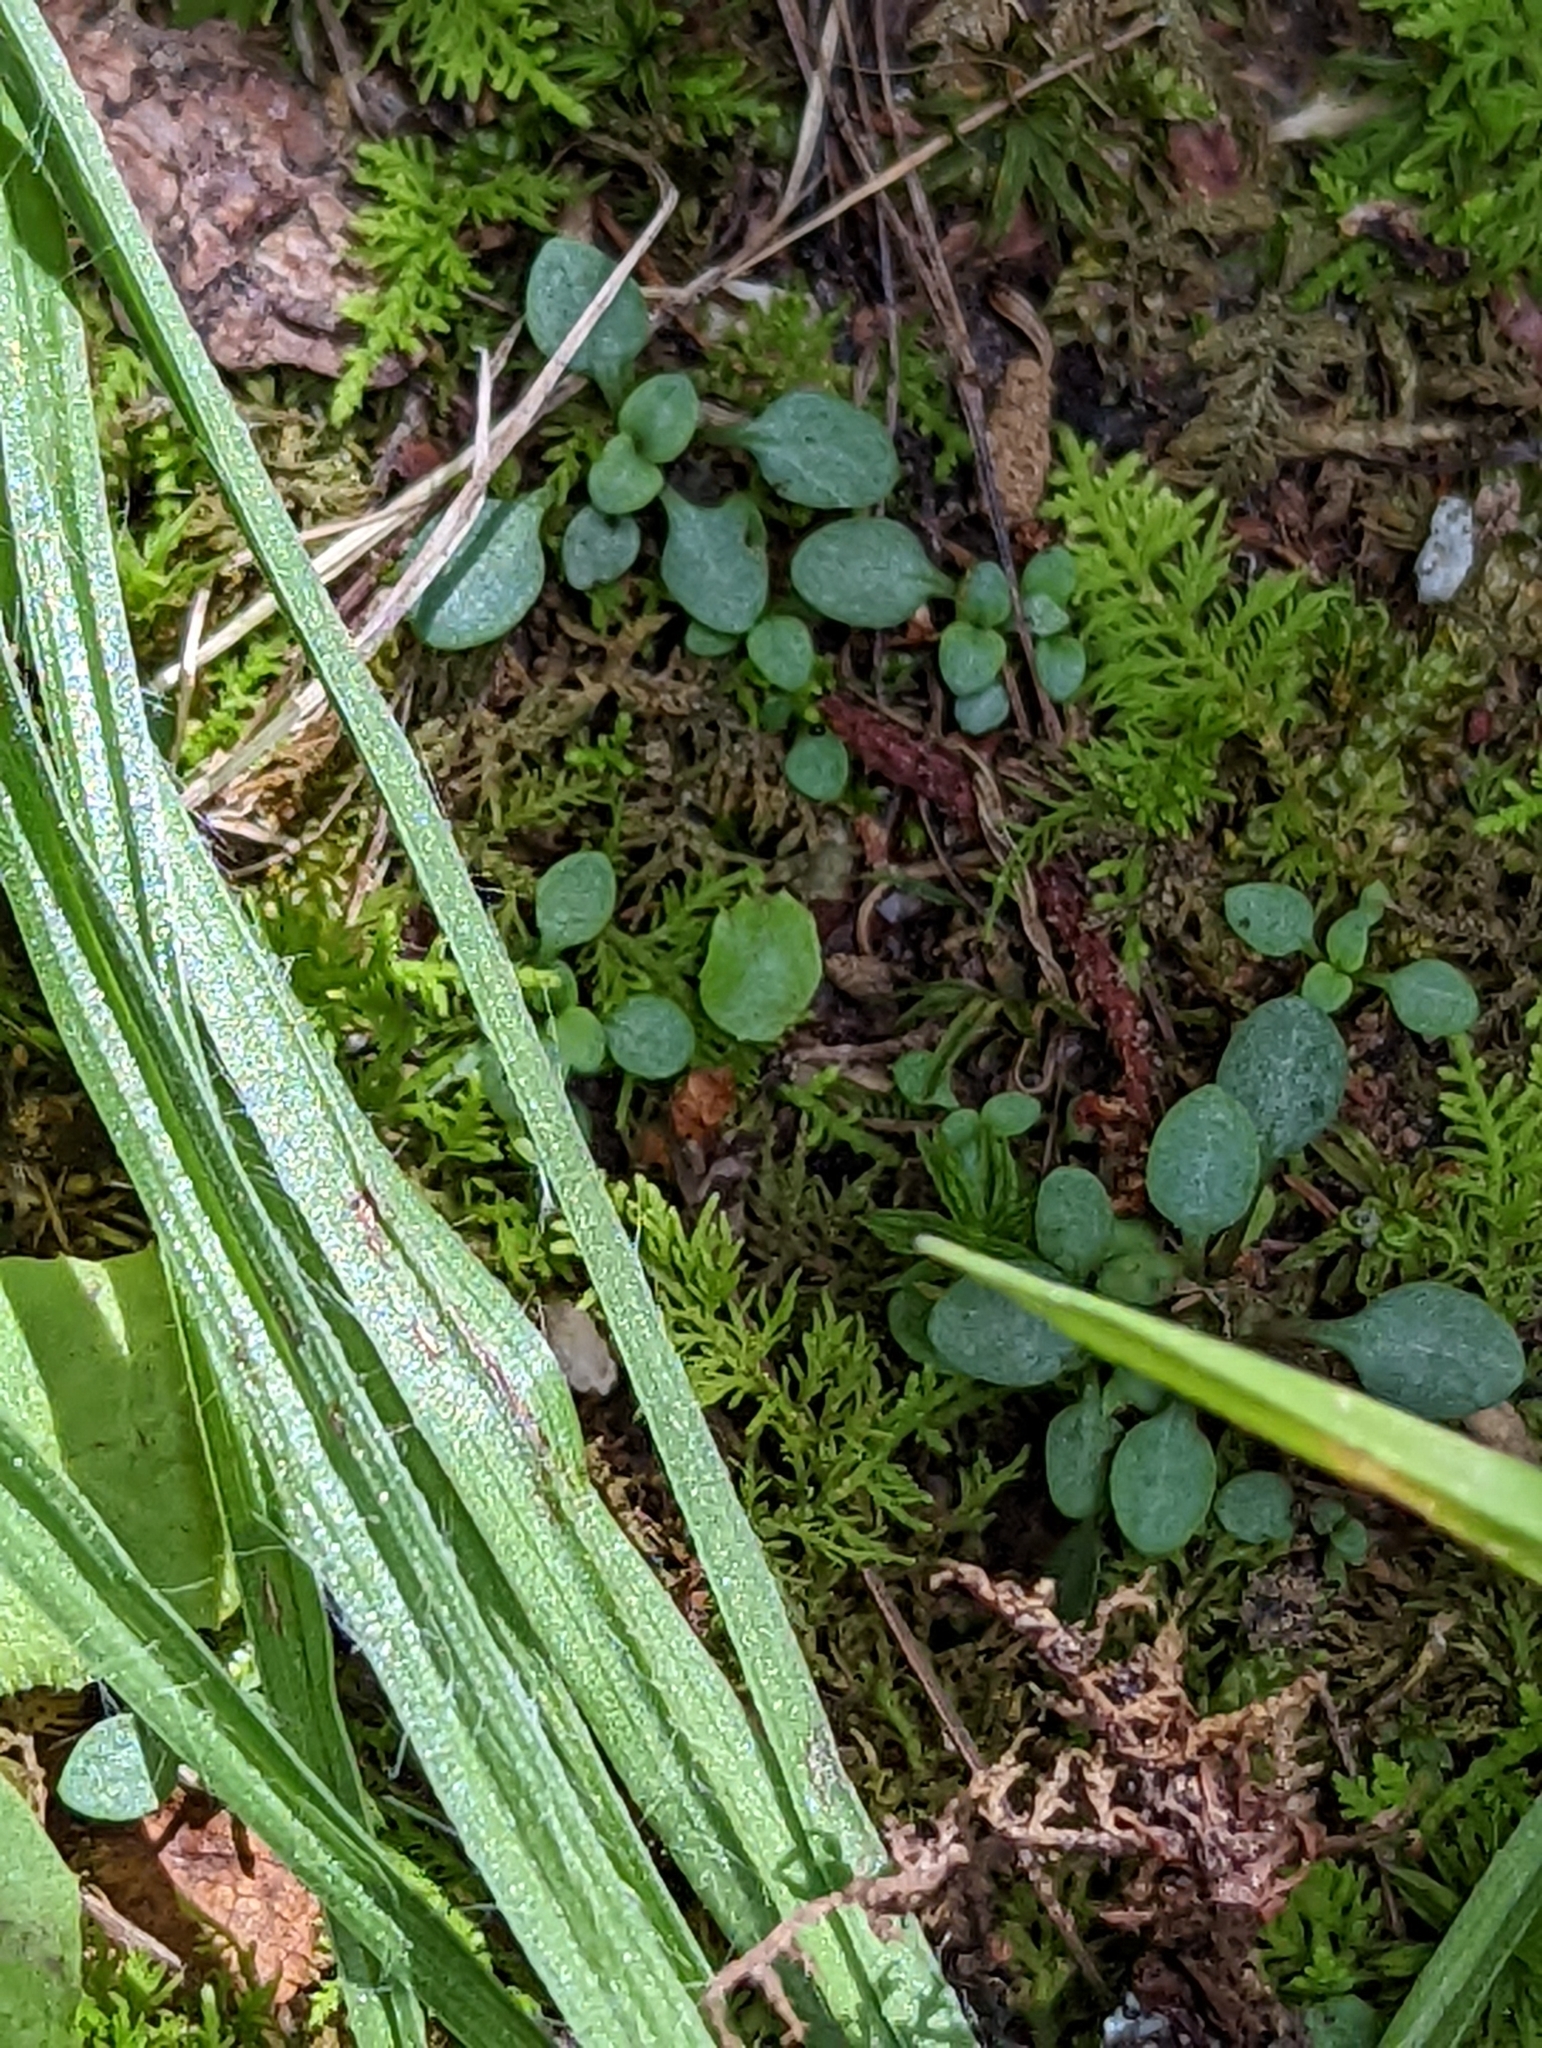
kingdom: Plantae
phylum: Tracheophyta
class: Magnoliopsida
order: Gentianales
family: Rubiaceae
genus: Houstonia
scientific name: Houstonia caerulea
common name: Bluets
